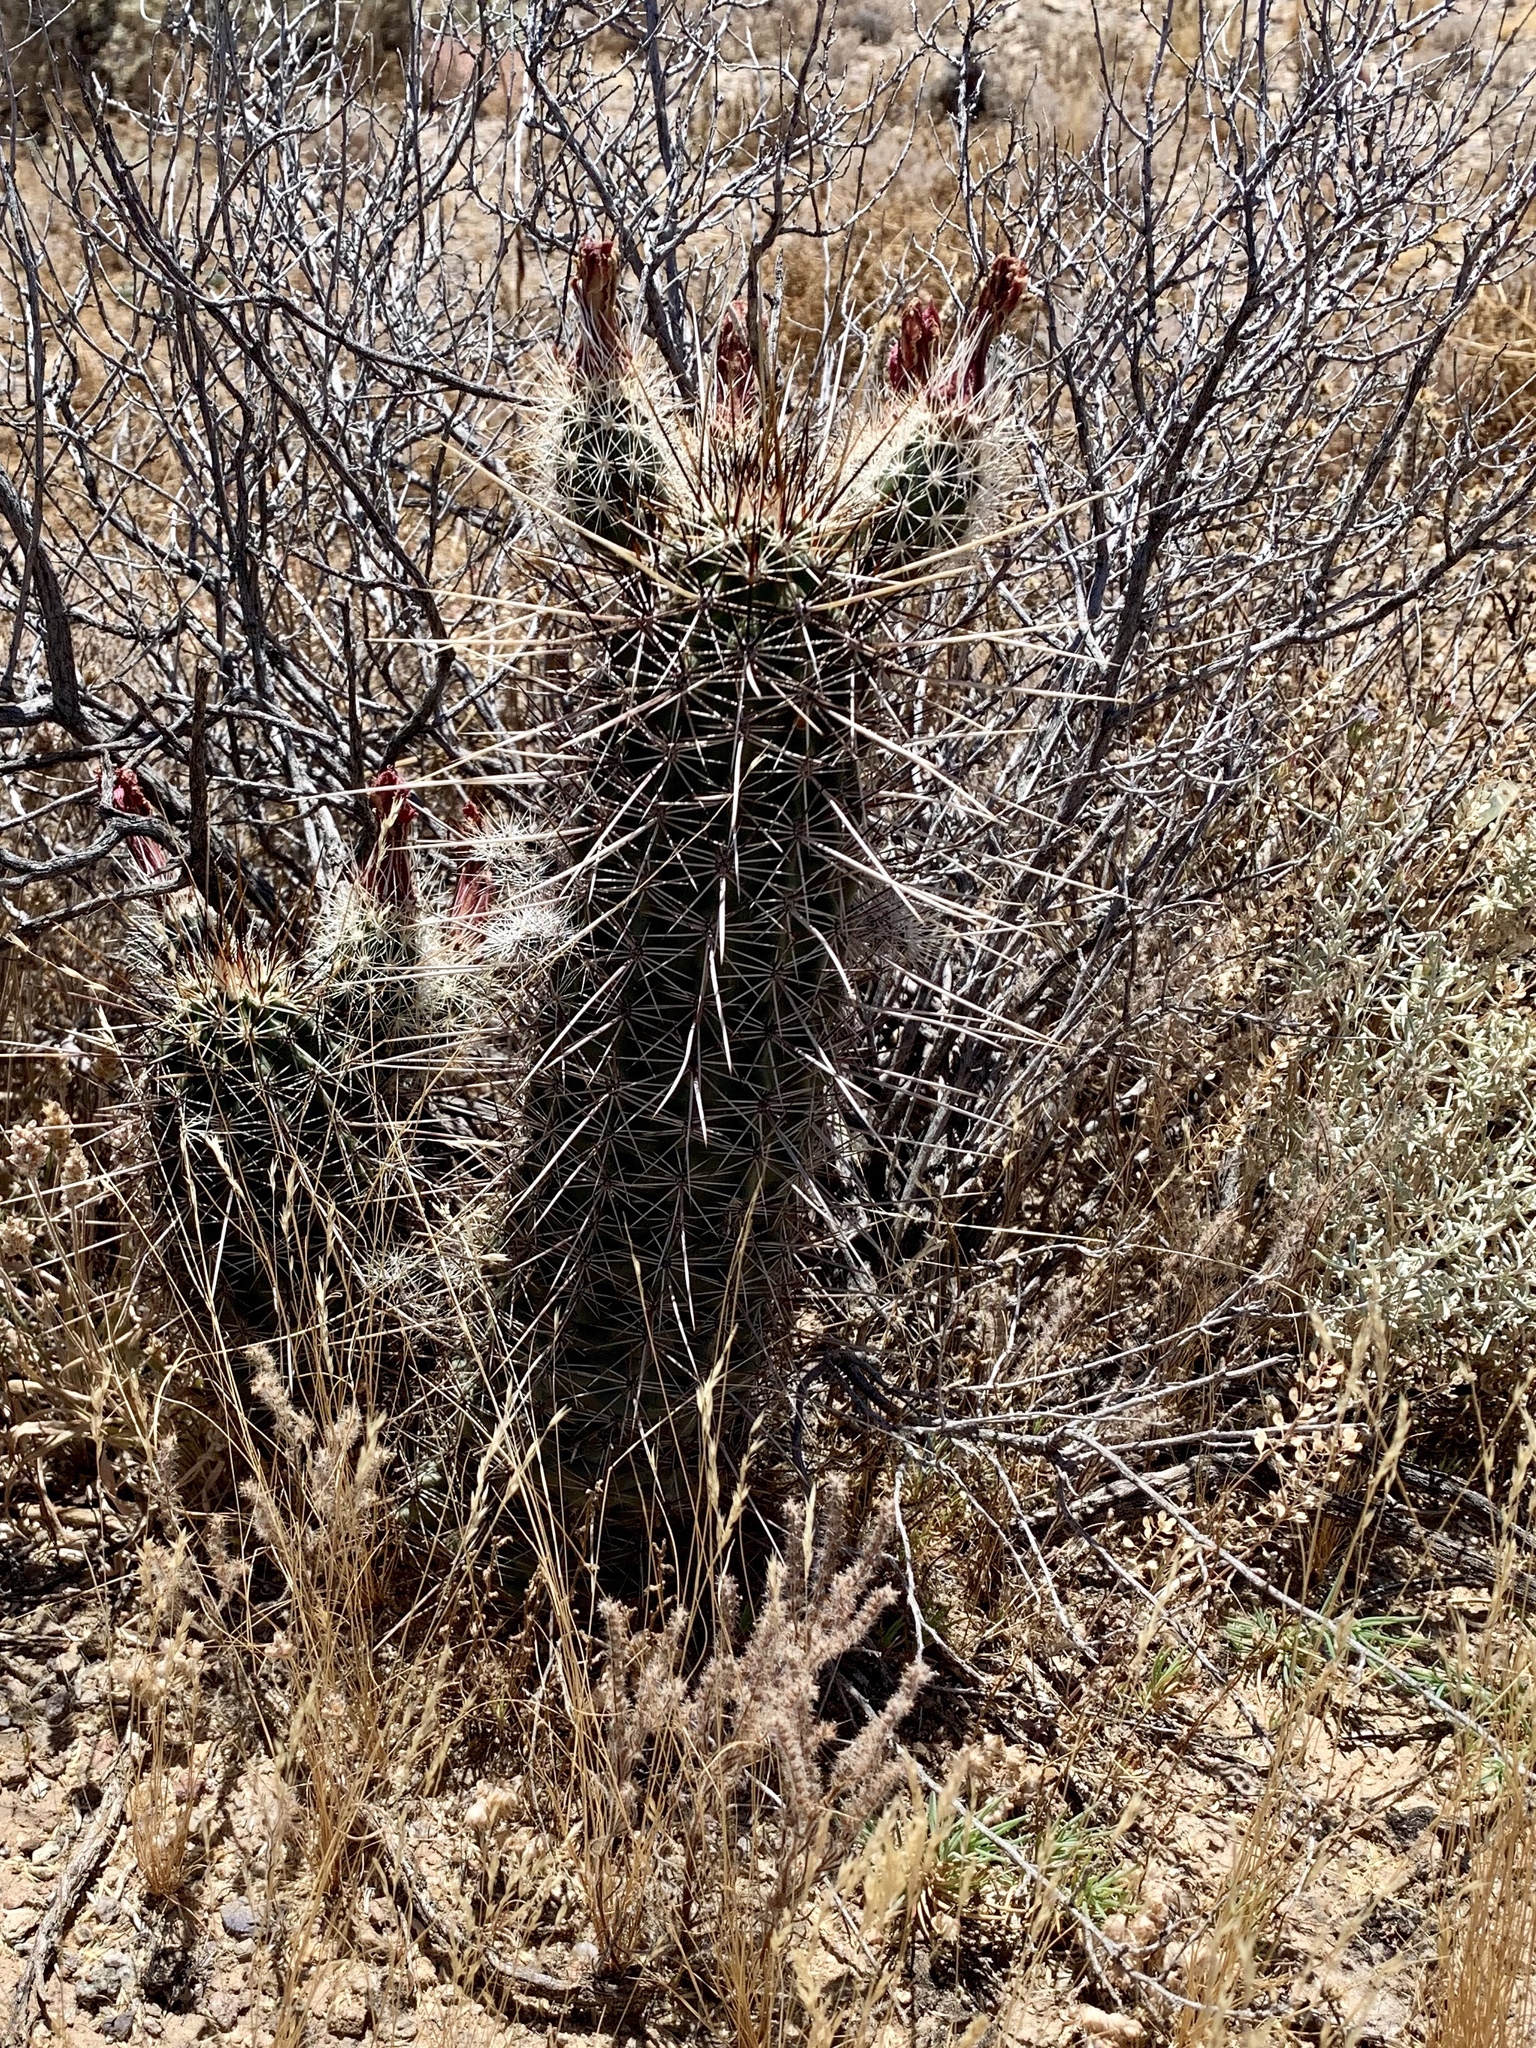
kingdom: Plantae
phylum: Tracheophyta
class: Magnoliopsida
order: Caryophyllales
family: Cactaceae
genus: Echinocereus
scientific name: Echinocereus fasciculatus
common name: Bundle hedgehog
